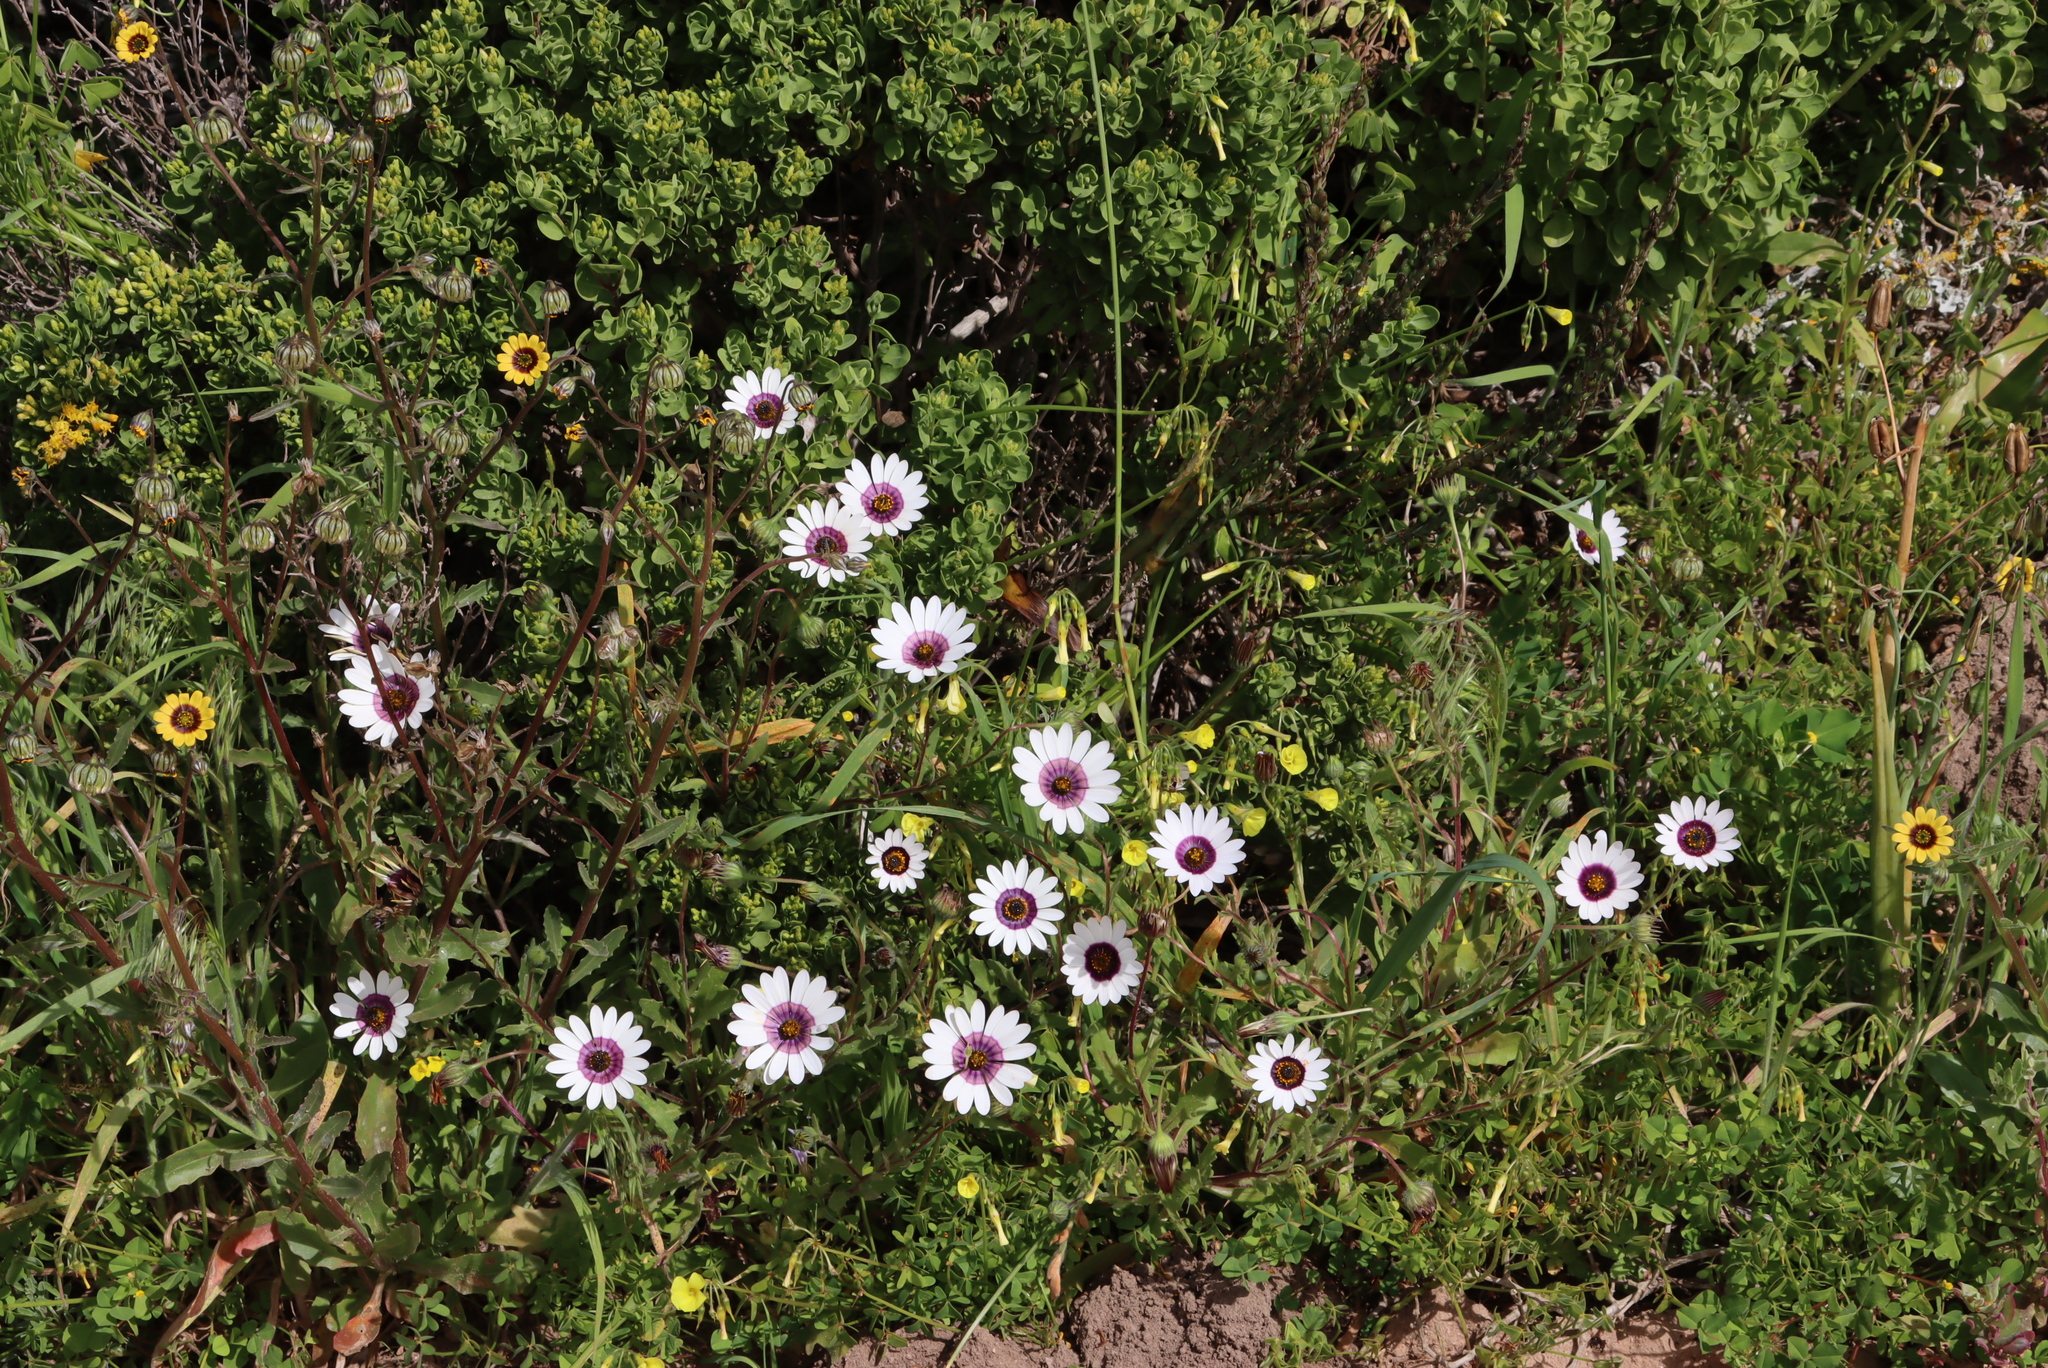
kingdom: Plantae
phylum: Tracheophyta
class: Magnoliopsida
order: Asterales
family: Asteraceae
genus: Felicia
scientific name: Felicia elongata
